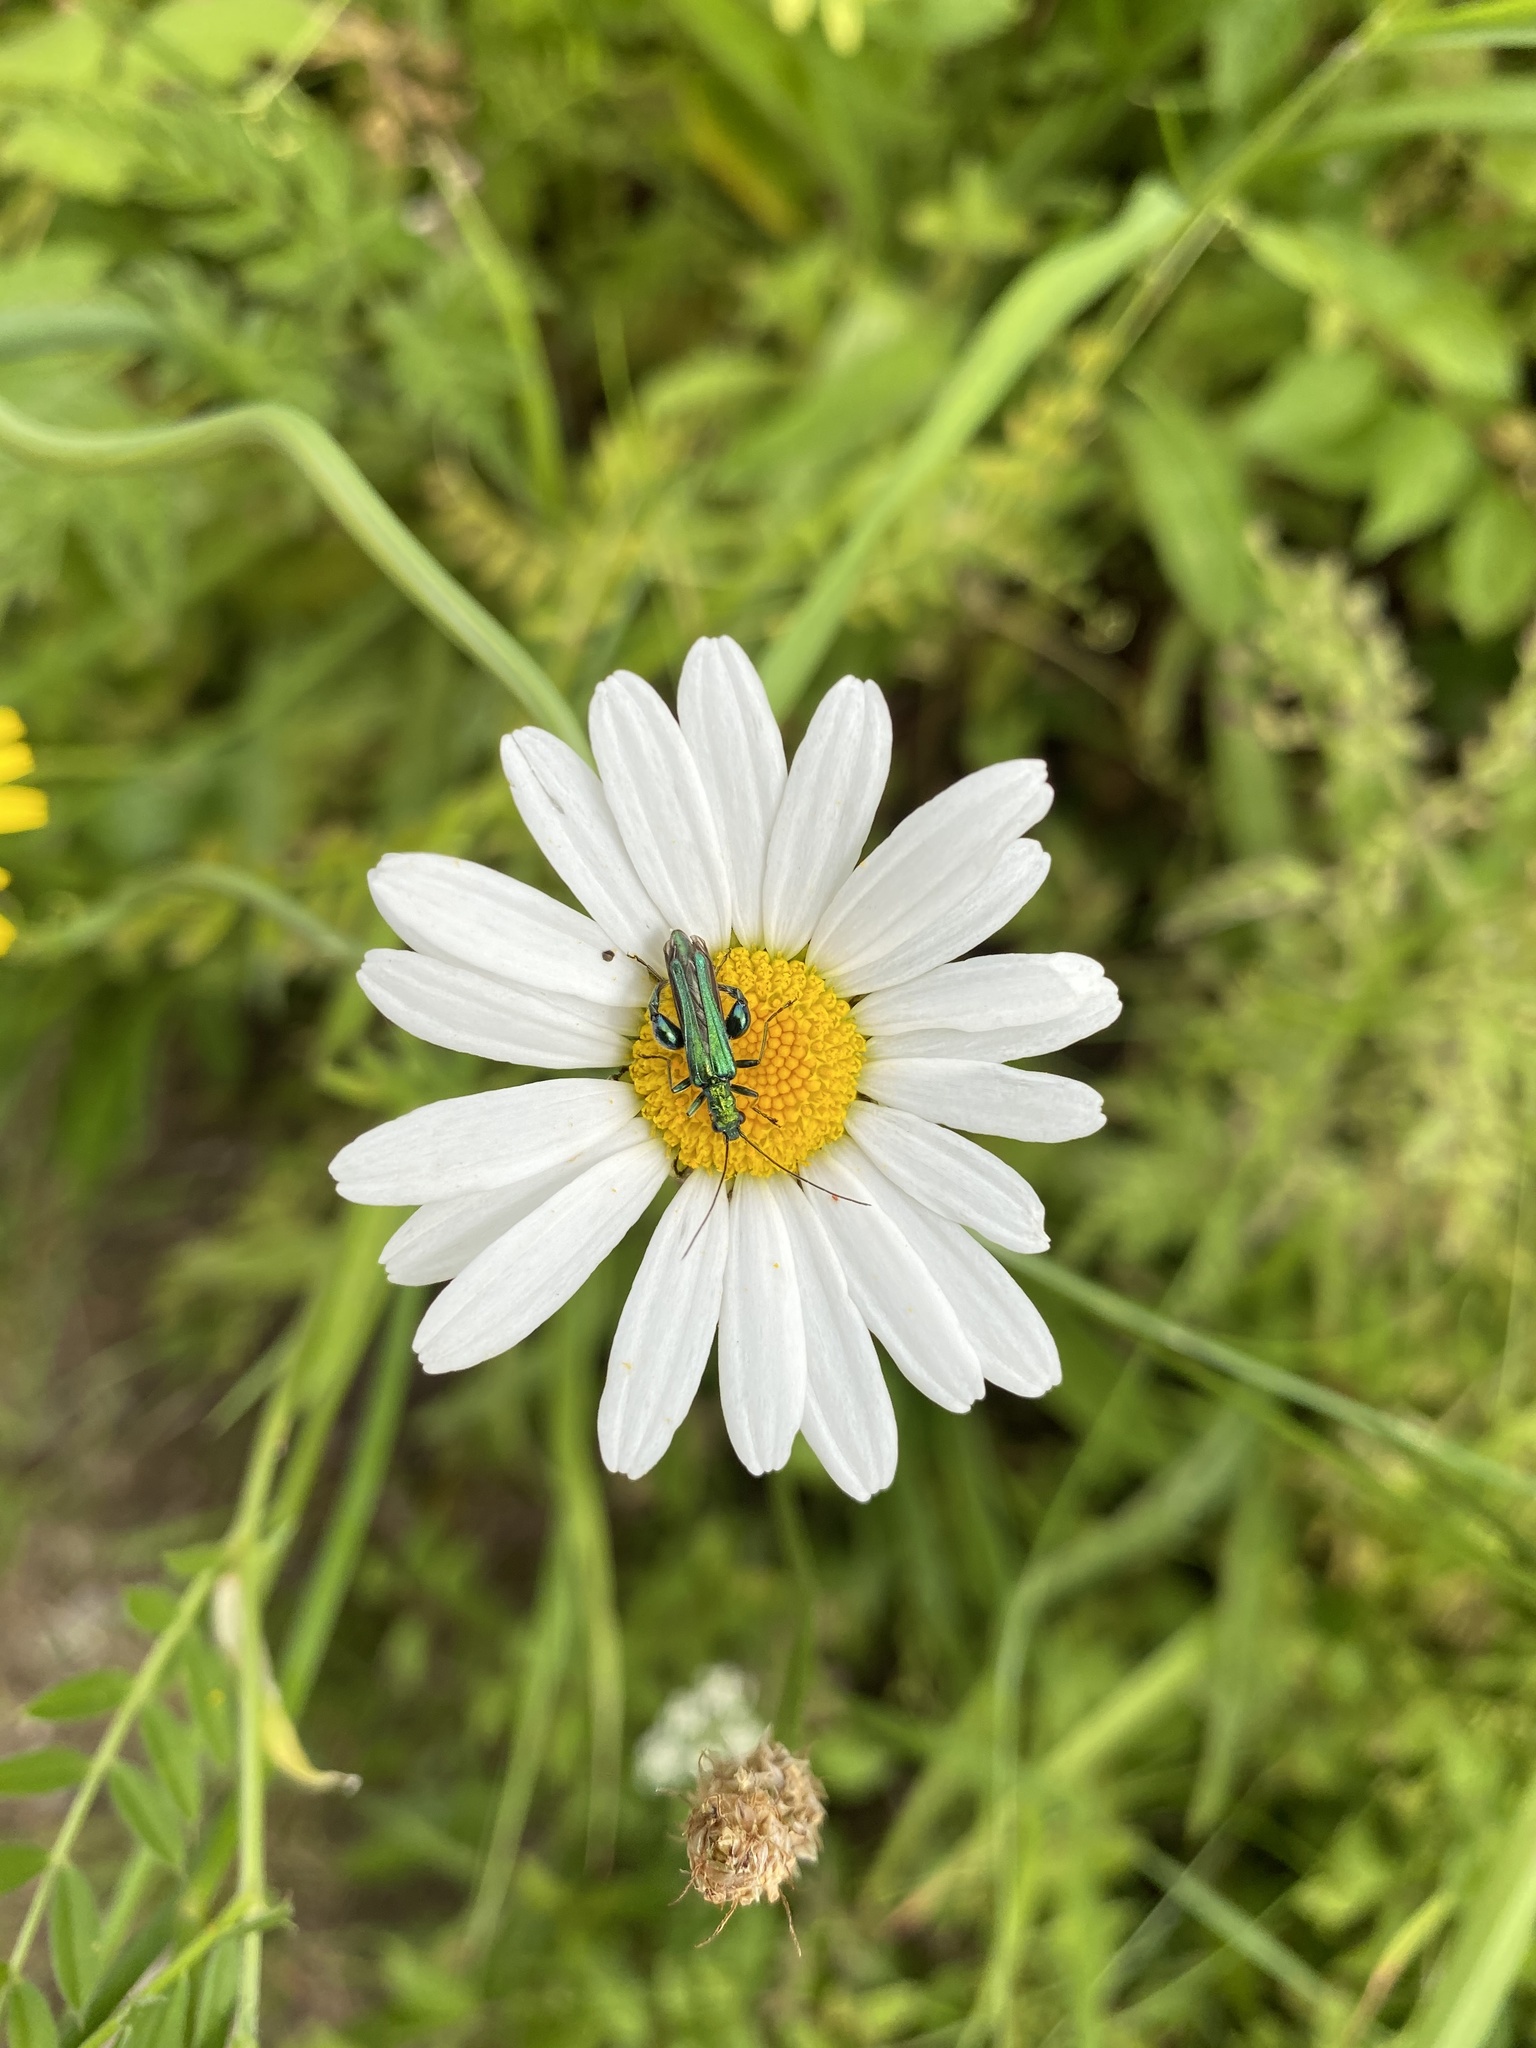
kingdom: Animalia
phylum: Arthropoda
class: Insecta
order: Coleoptera
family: Oedemeridae
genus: Oedemera
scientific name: Oedemera nobilis
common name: Swollen-thighed beetle
